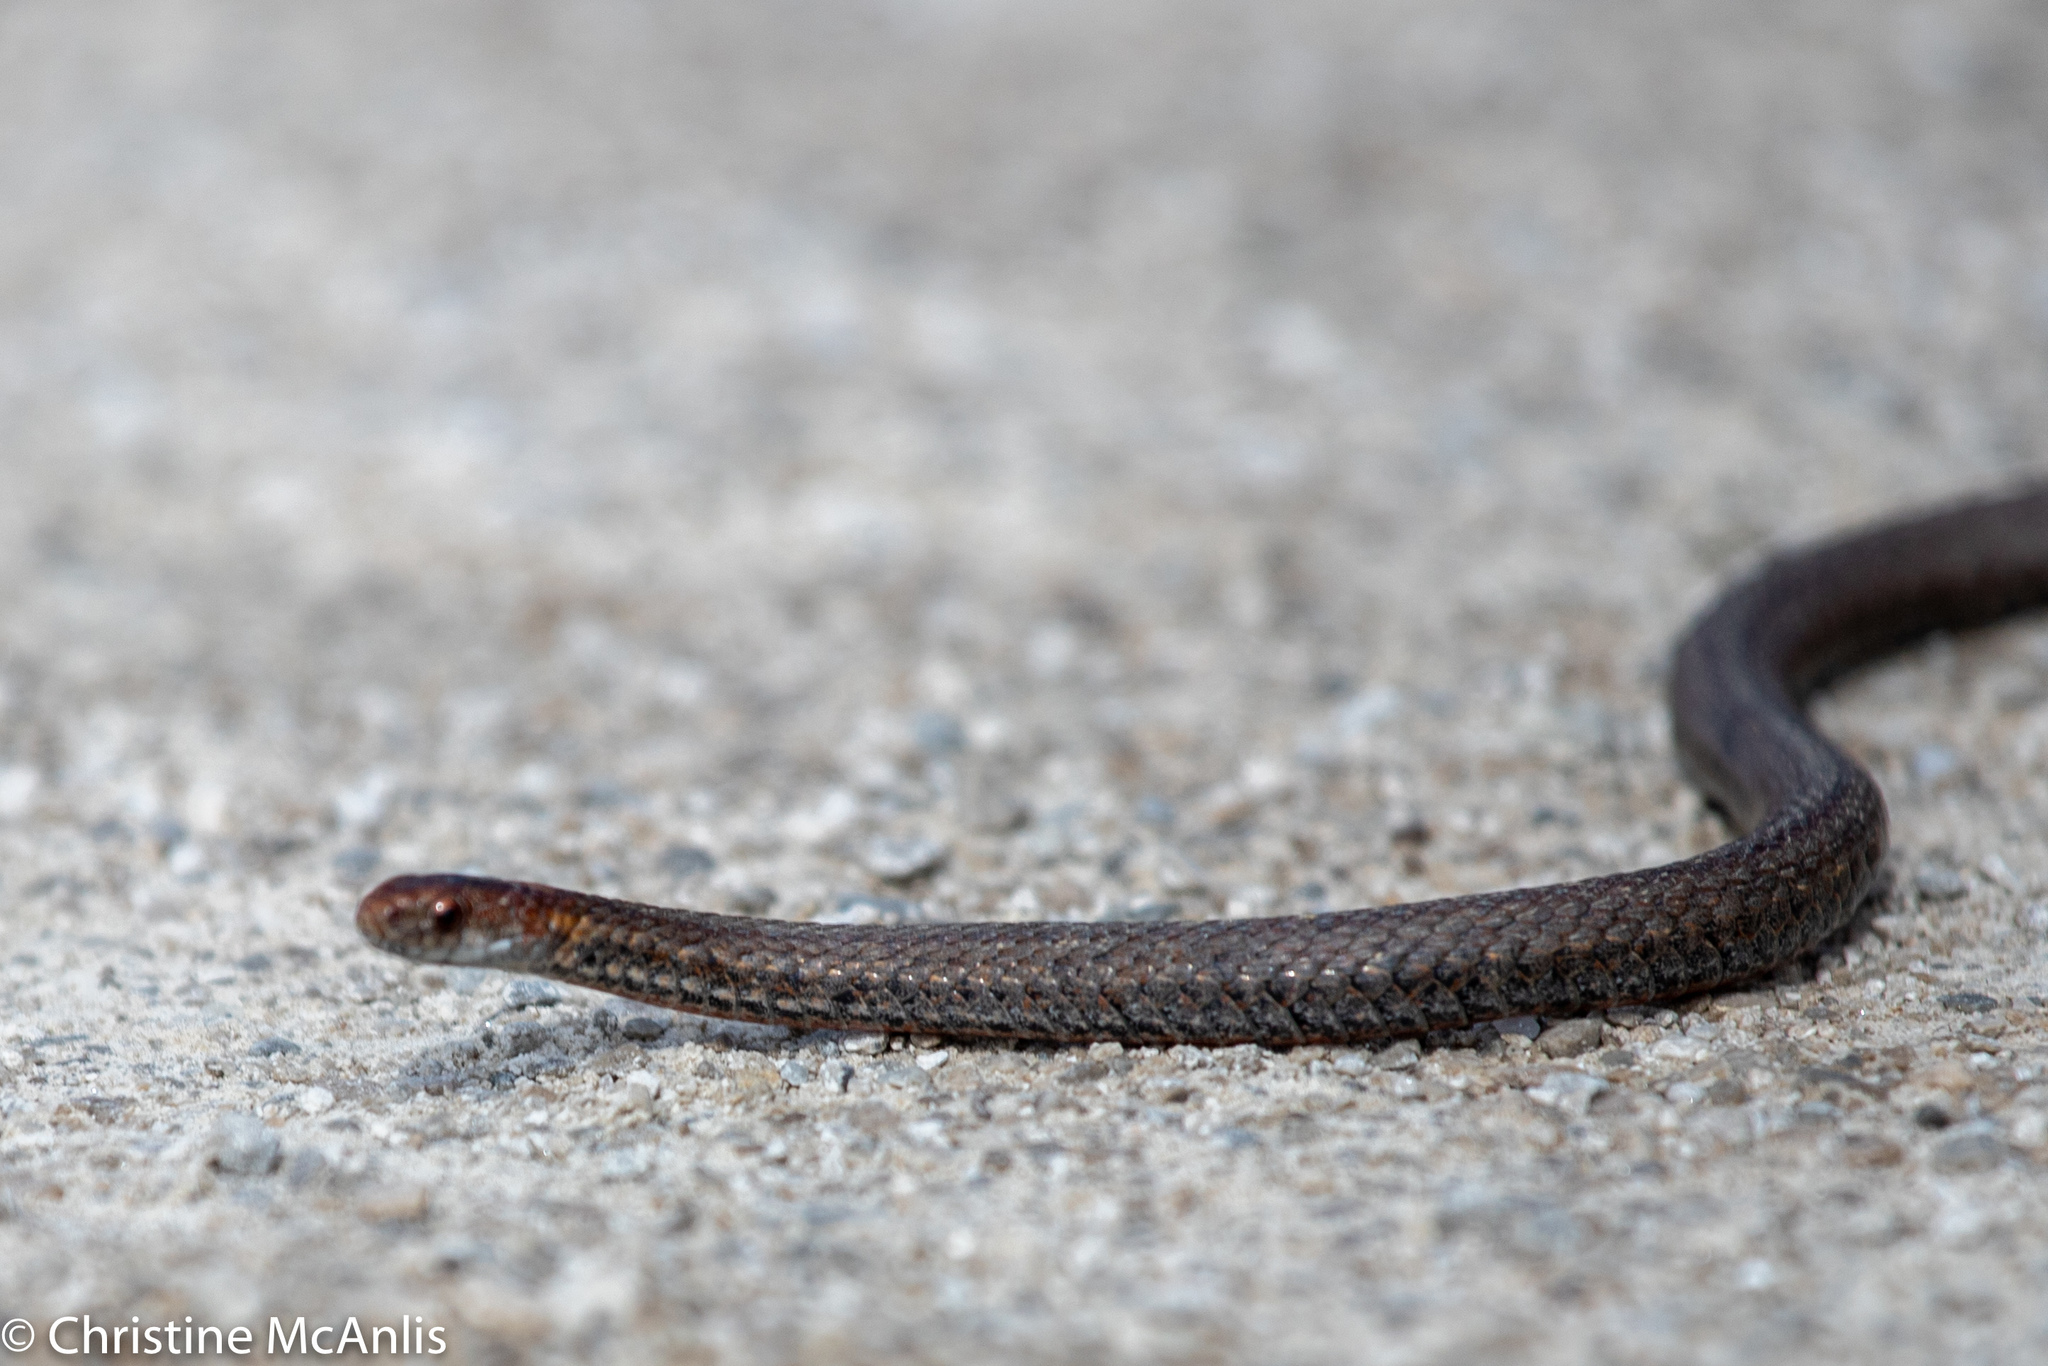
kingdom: Animalia
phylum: Chordata
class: Squamata
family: Colubridae
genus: Storeria
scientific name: Storeria occipitomaculata
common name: Redbelly snake
